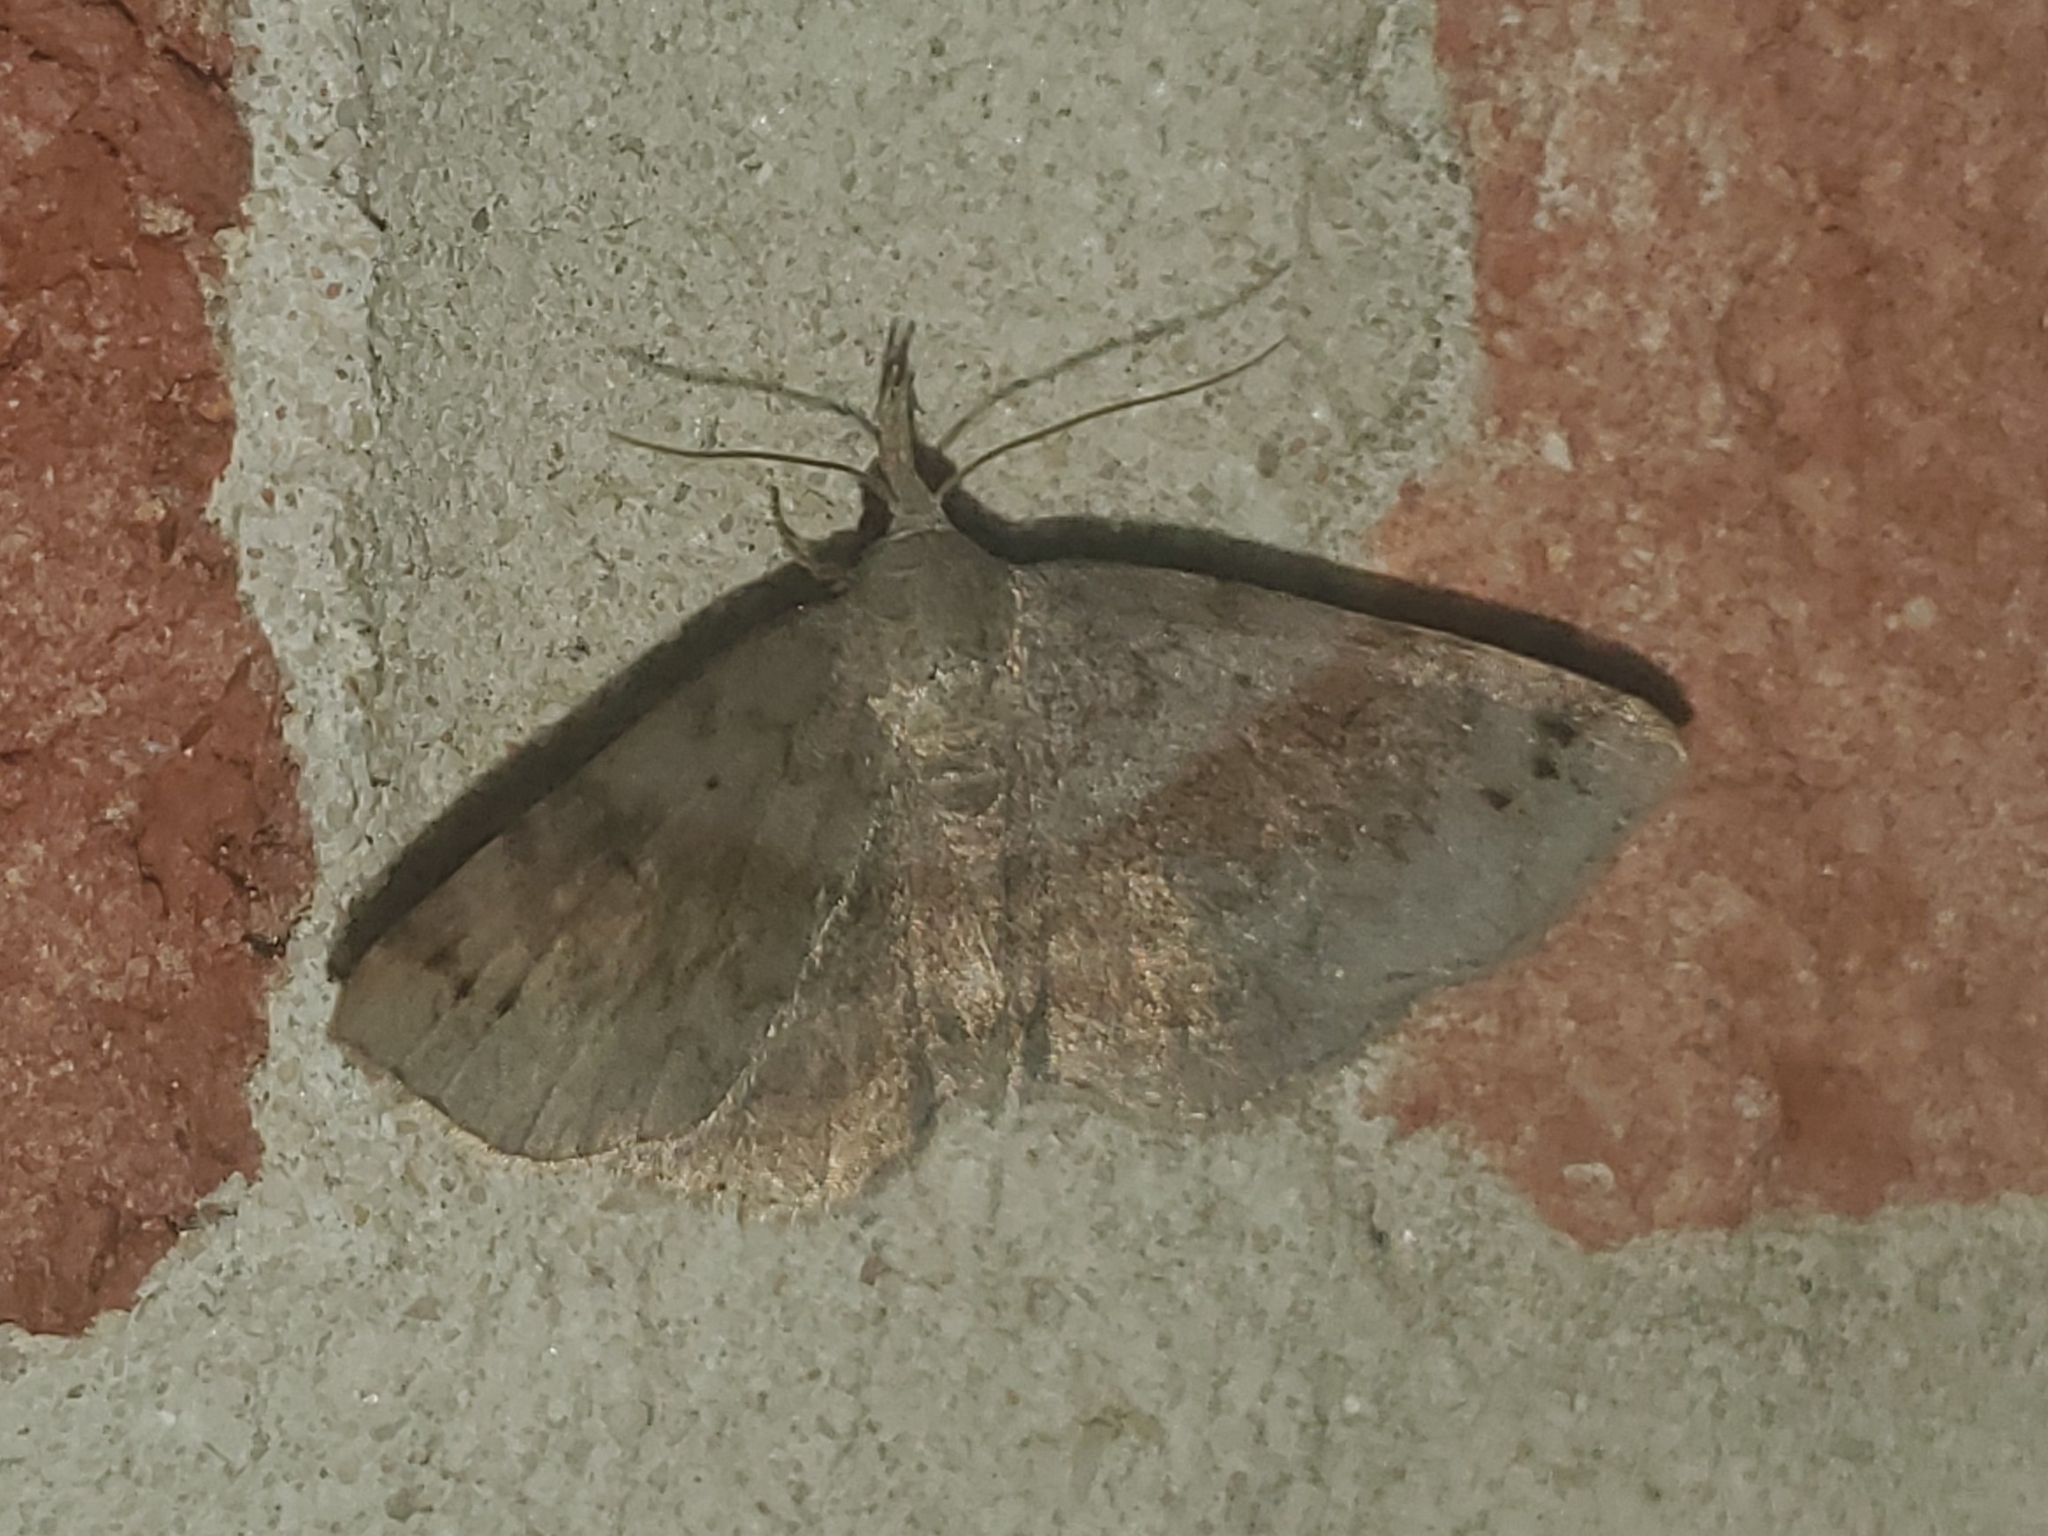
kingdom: Animalia
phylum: Arthropoda
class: Insecta
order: Lepidoptera
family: Erebidae
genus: Spargaloma
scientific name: Spargaloma sexpunctata
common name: Six-spotted gray
